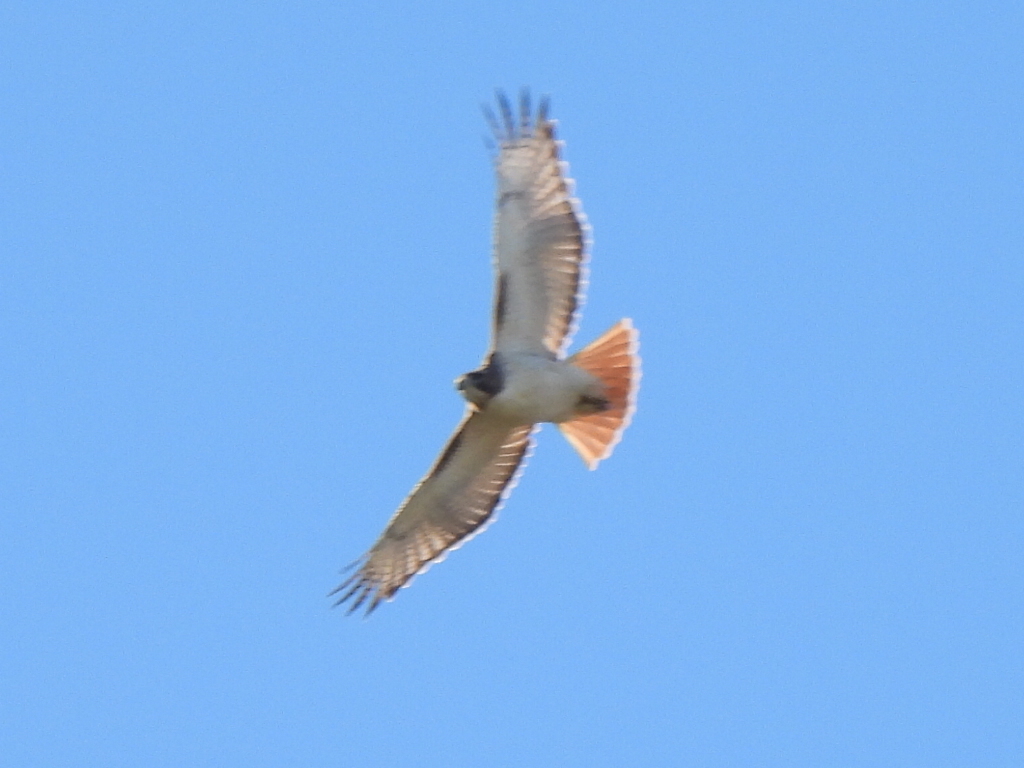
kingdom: Animalia
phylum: Chordata
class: Aves
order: Accipitriformes
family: Accipitridae
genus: Buteo
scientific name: Buteo jamaicensis
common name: Red-tailed hawk
